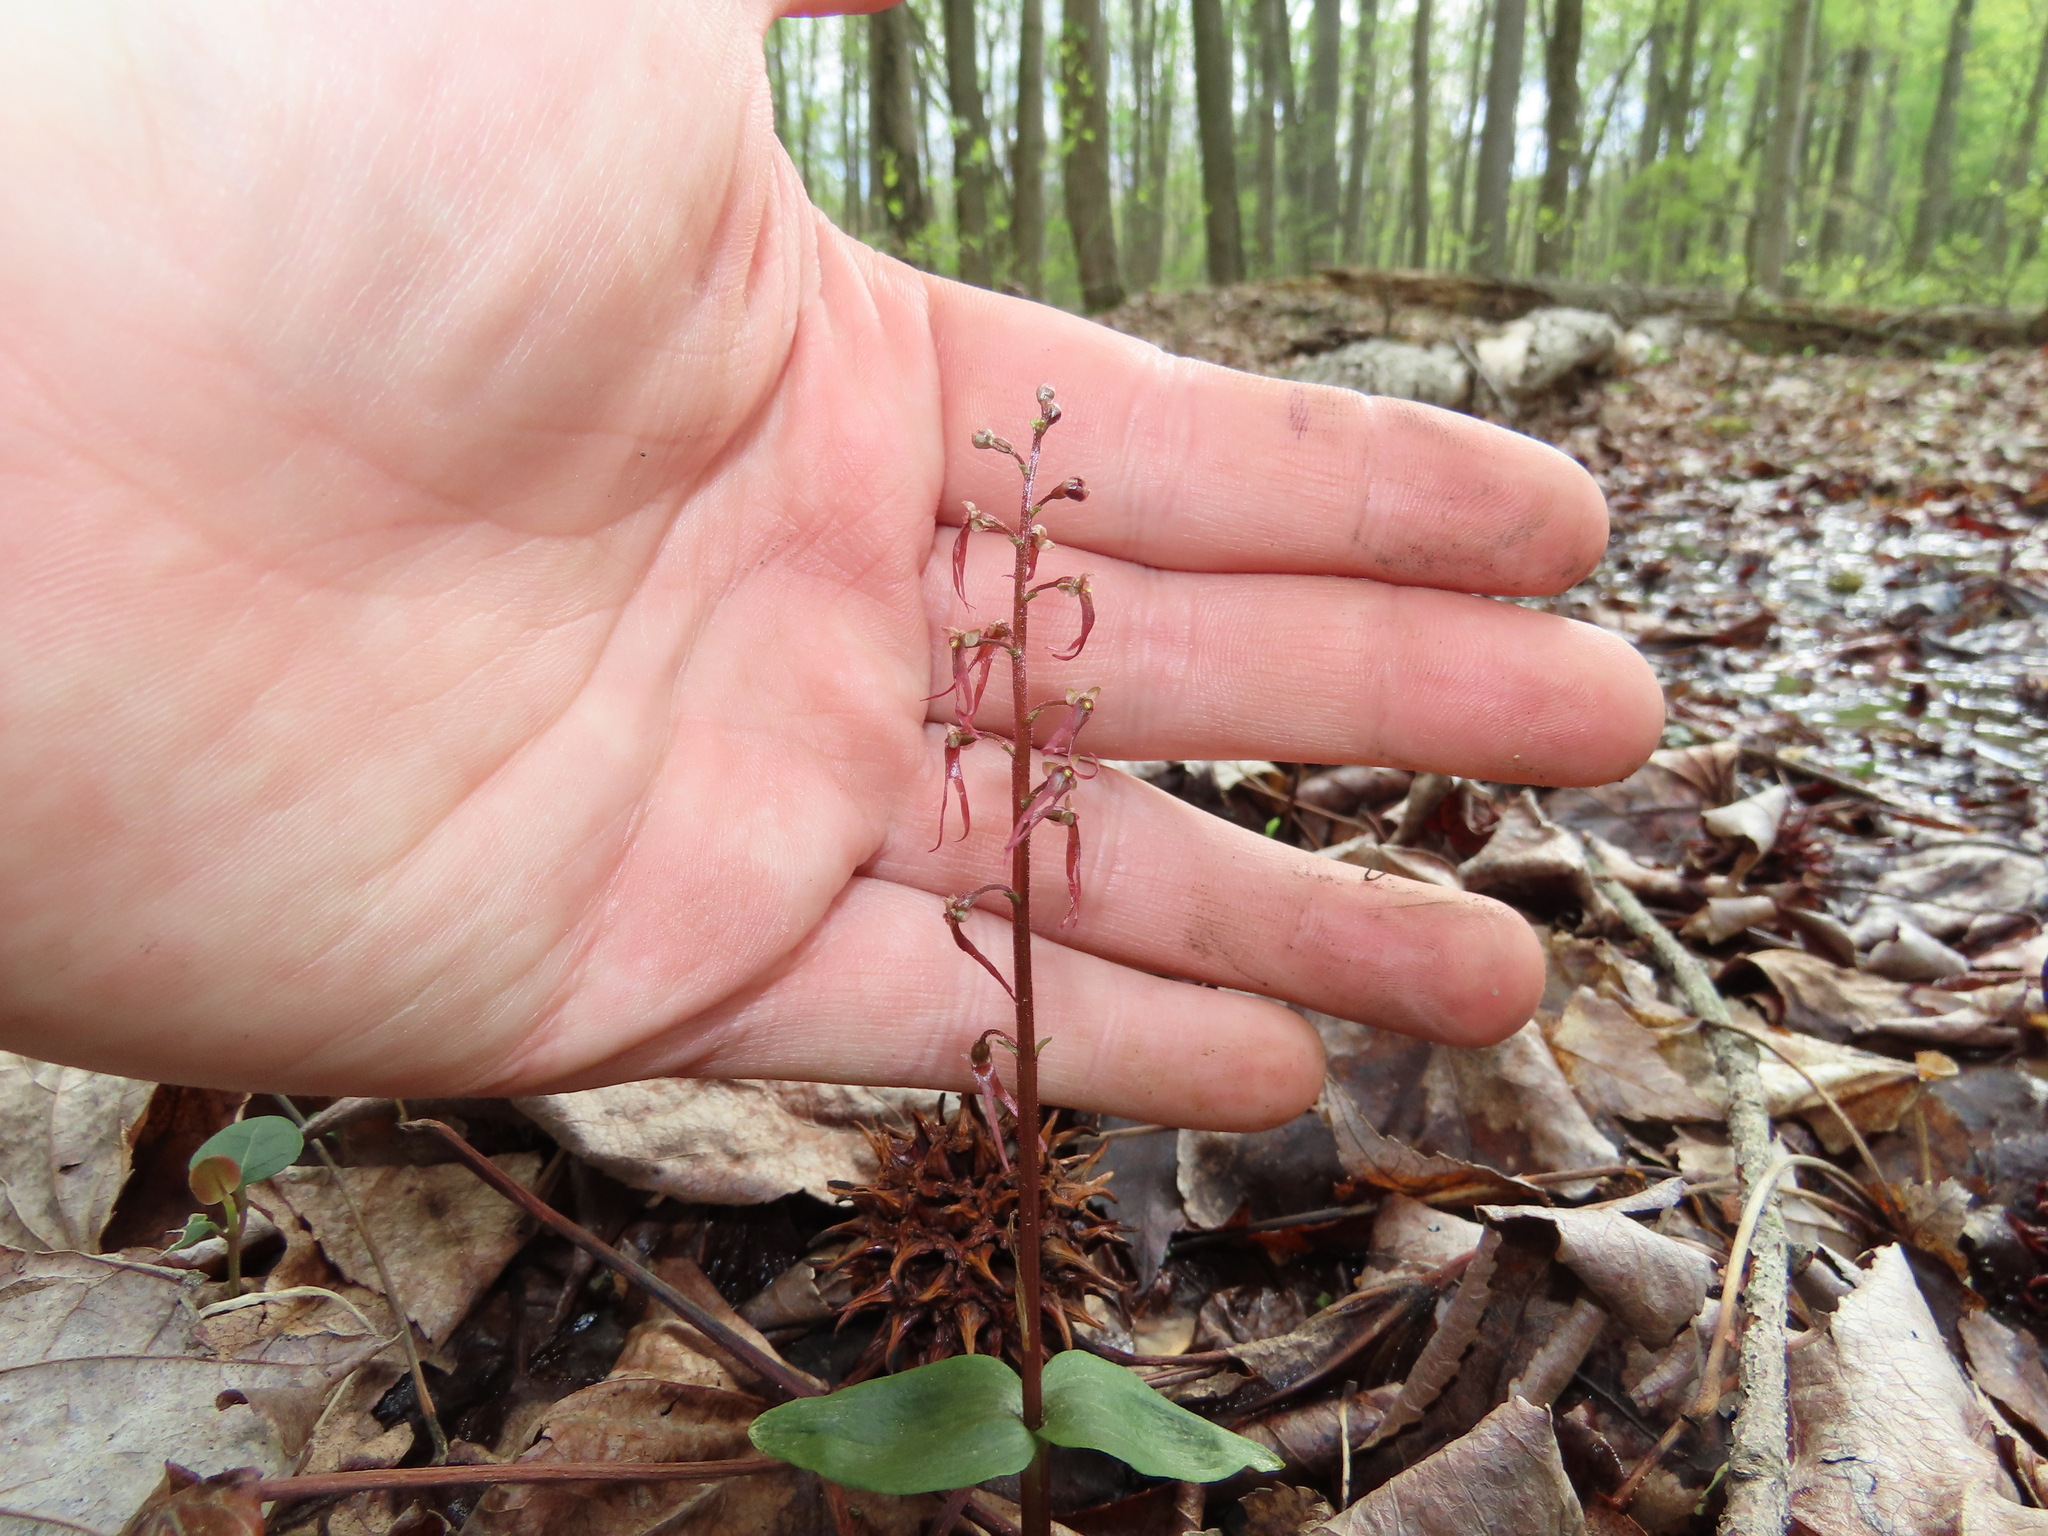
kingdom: Plantae
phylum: Tracheophyta
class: Liliopsida
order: Asparagales
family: Orchidaceae
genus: Neottia
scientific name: Neottia bifolia
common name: Southern twayblade
